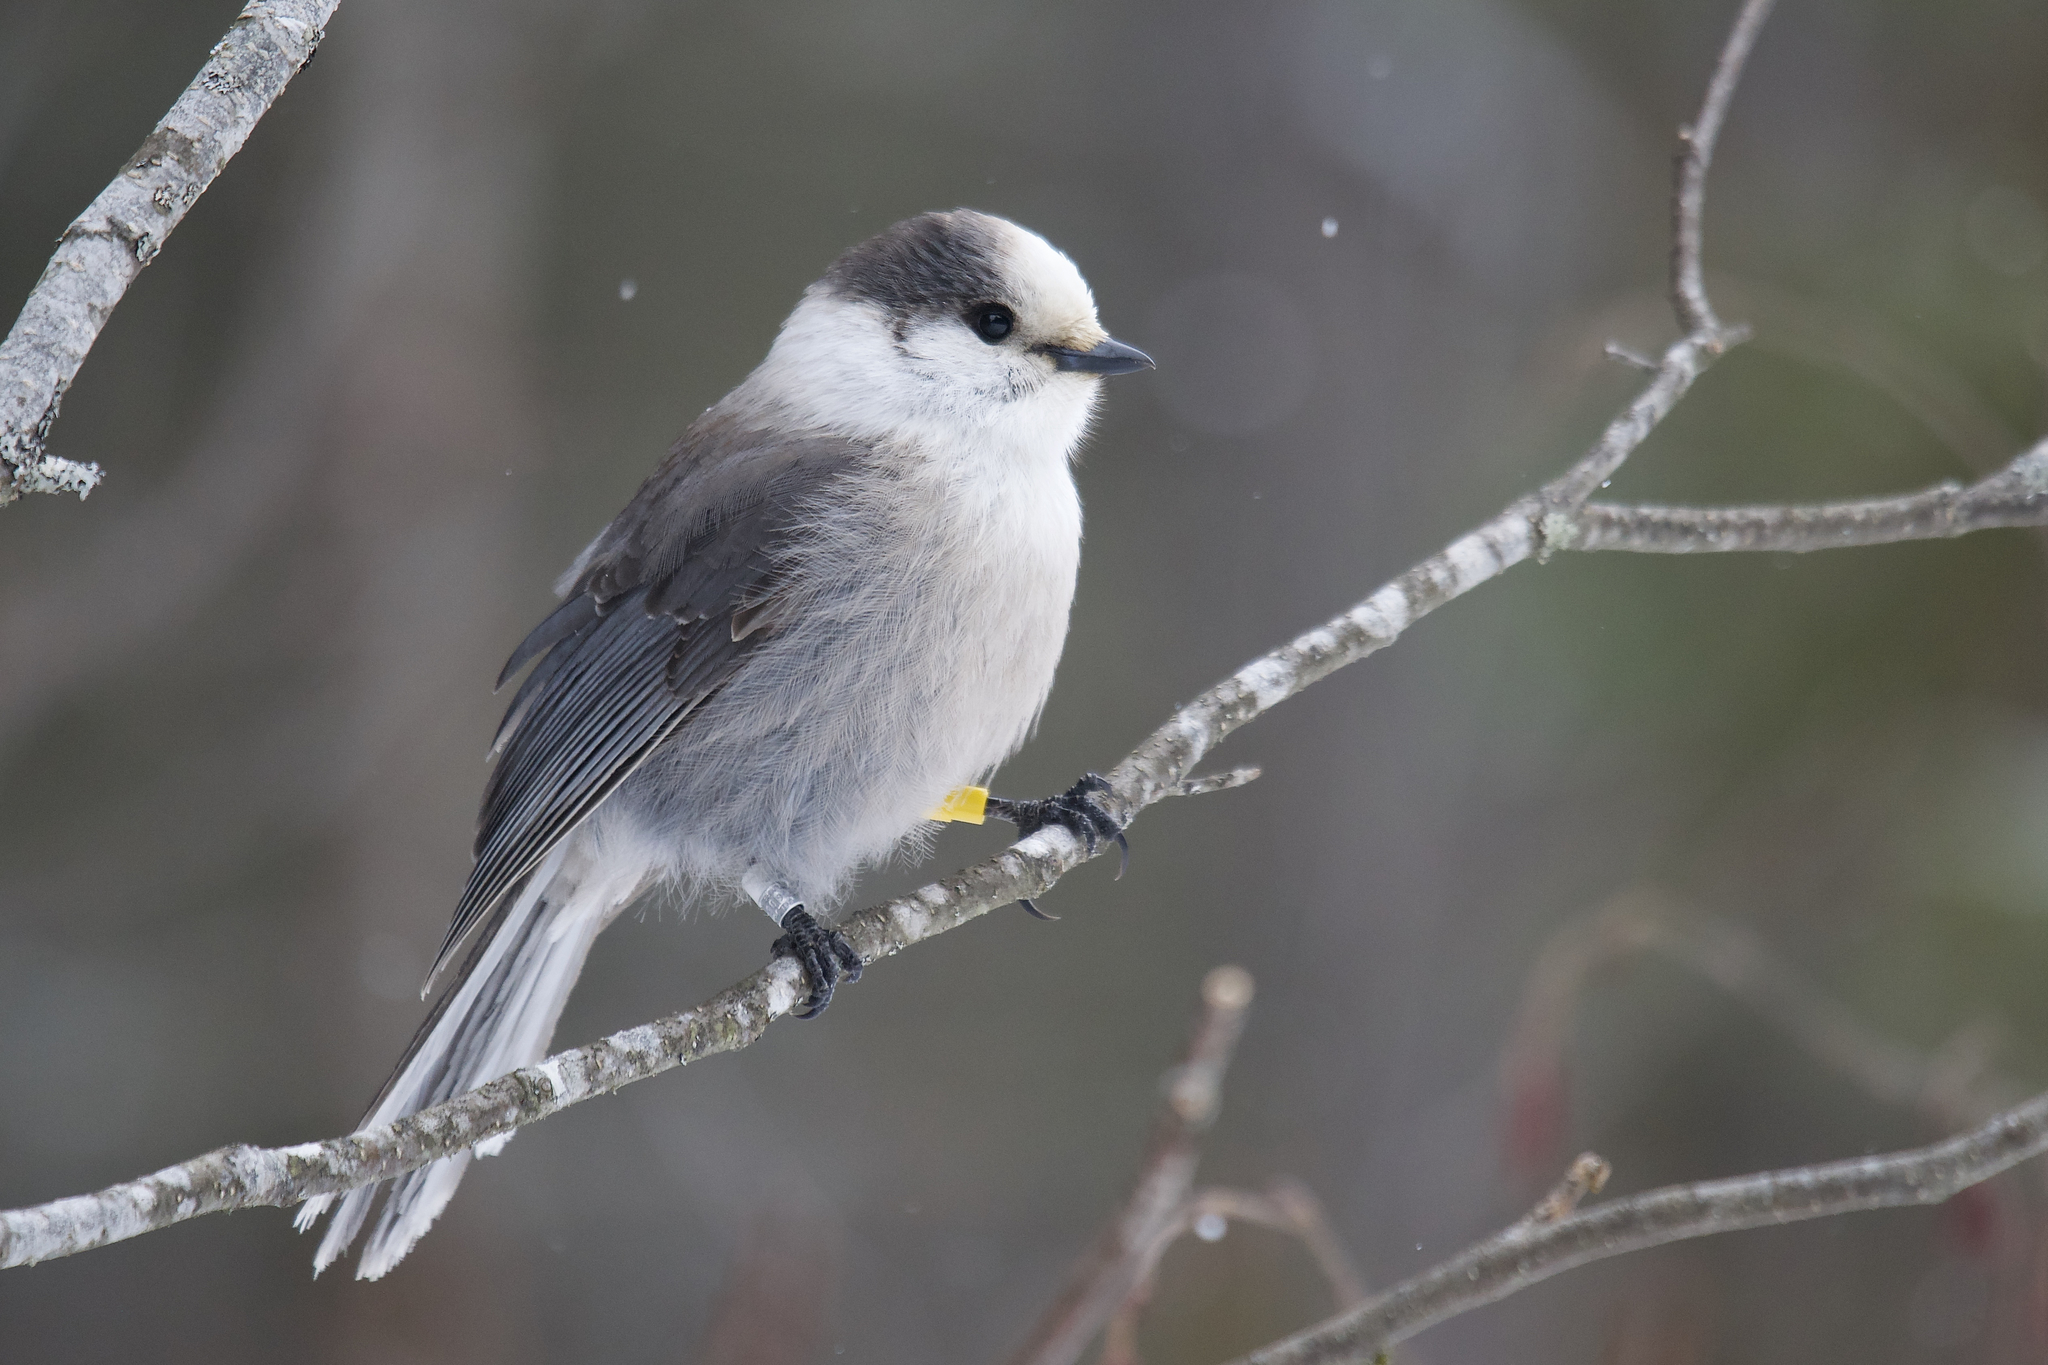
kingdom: Animalia
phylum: Chordata
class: Aves
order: Passeriformes
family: Corvidae
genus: Perisoreus
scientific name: Perisoreus canadensis
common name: Gray jay
